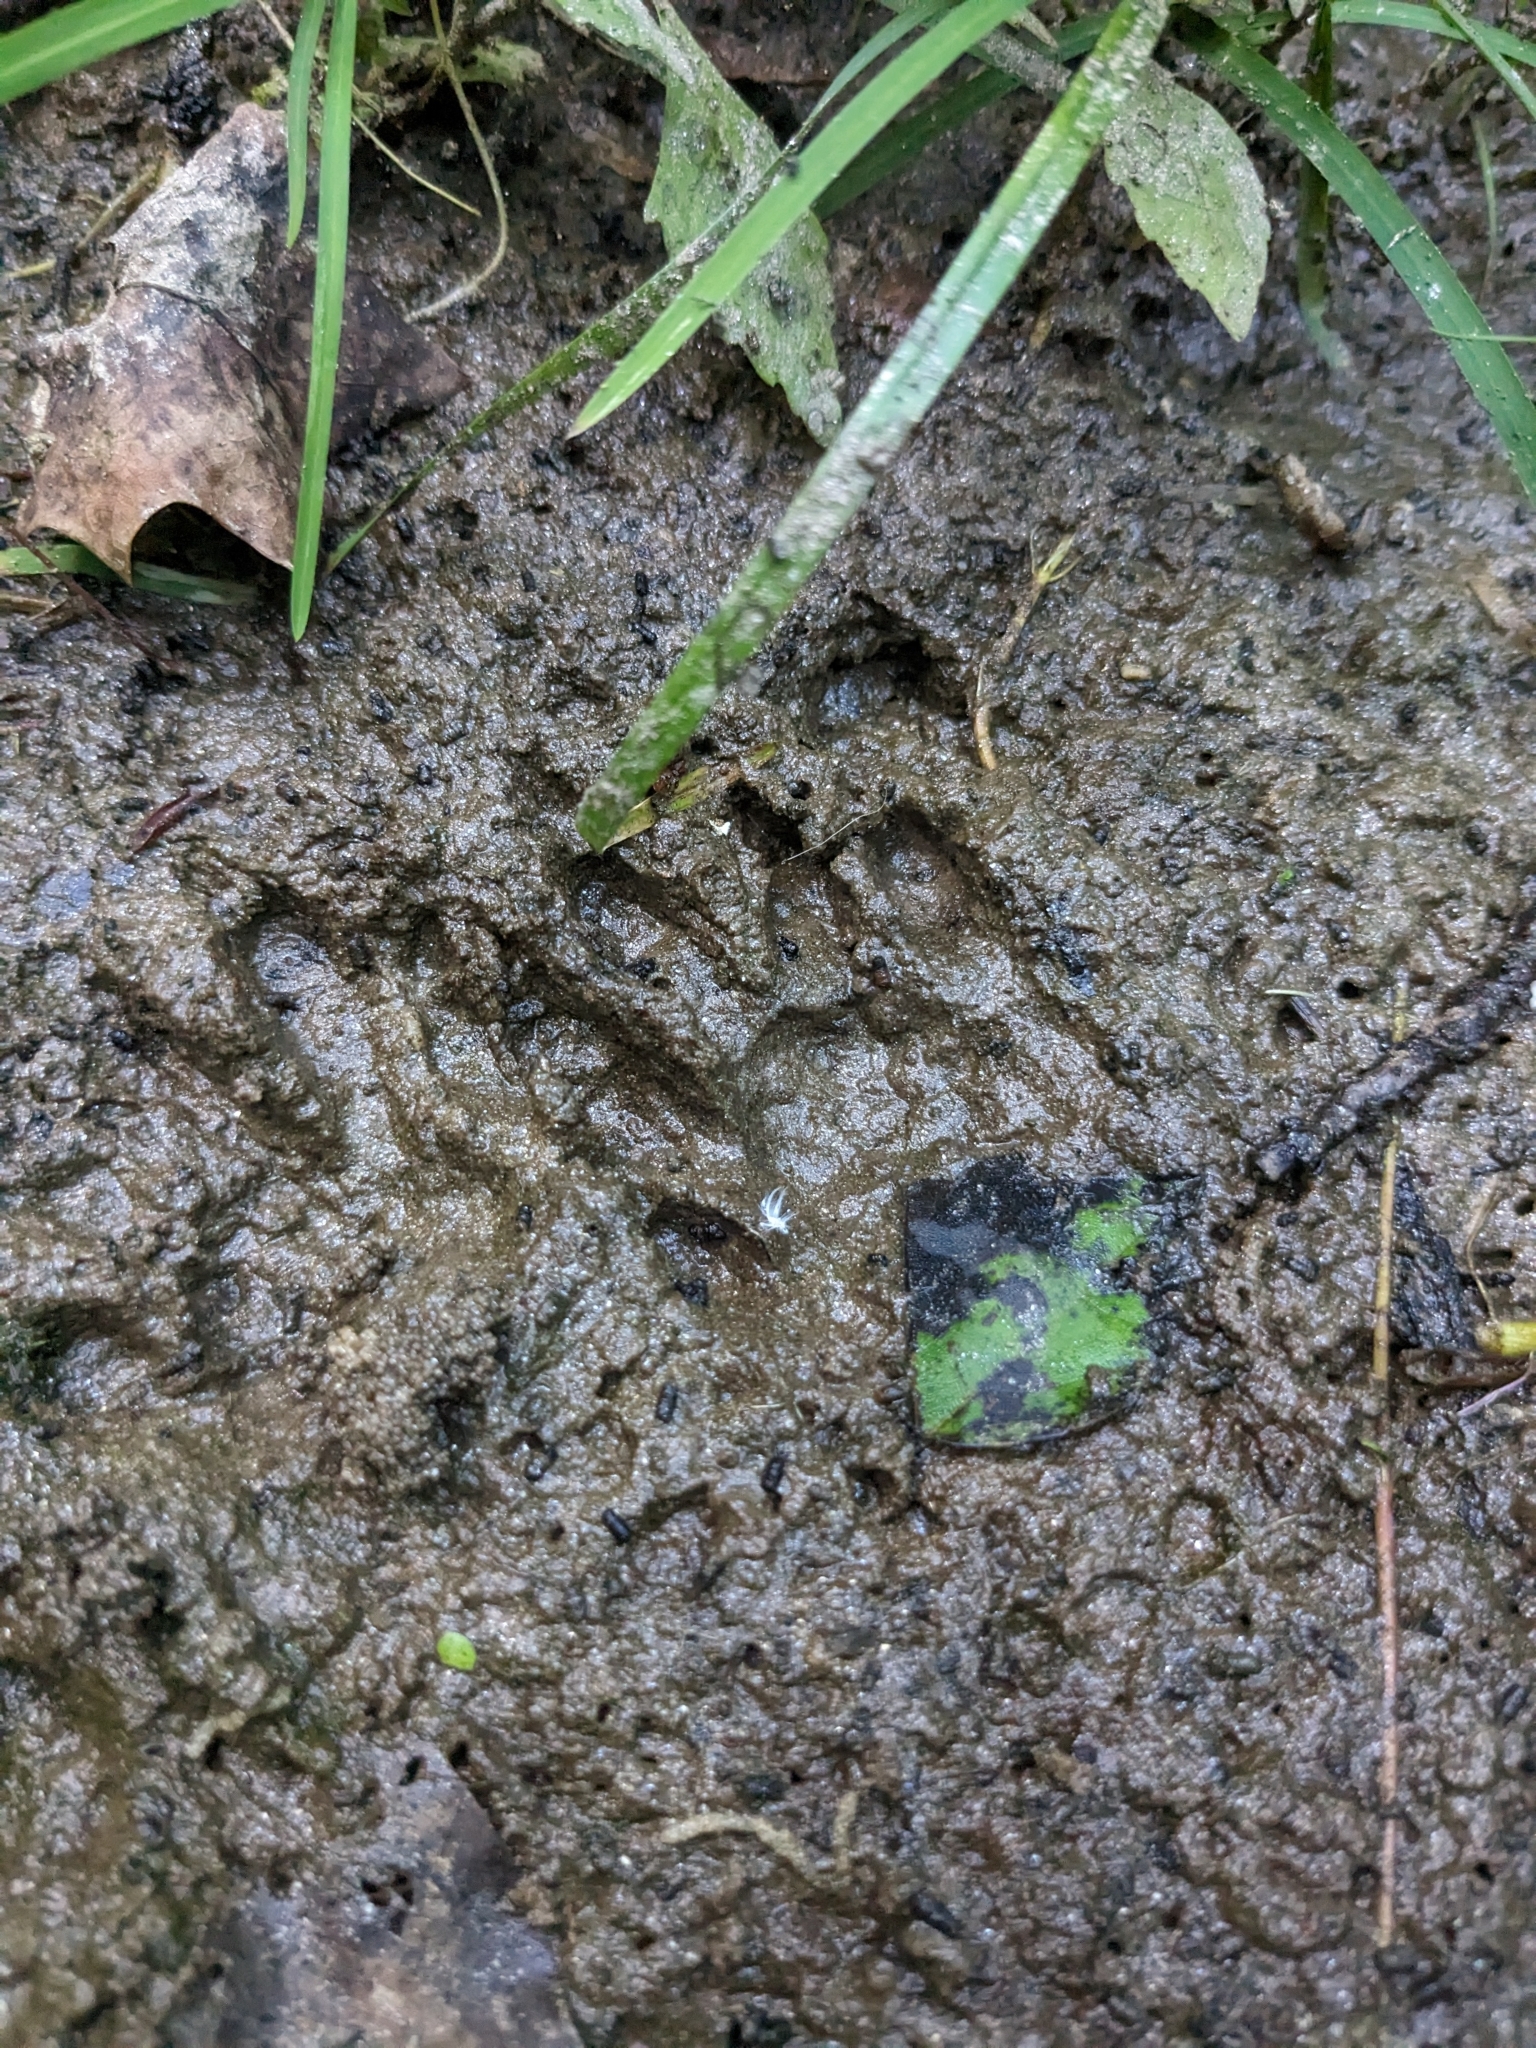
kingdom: Animalia
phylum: Chordata
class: Mammalia
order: Carnivora
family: Procyonidae
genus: Procyon
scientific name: Procyon lotor
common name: Raccoon
